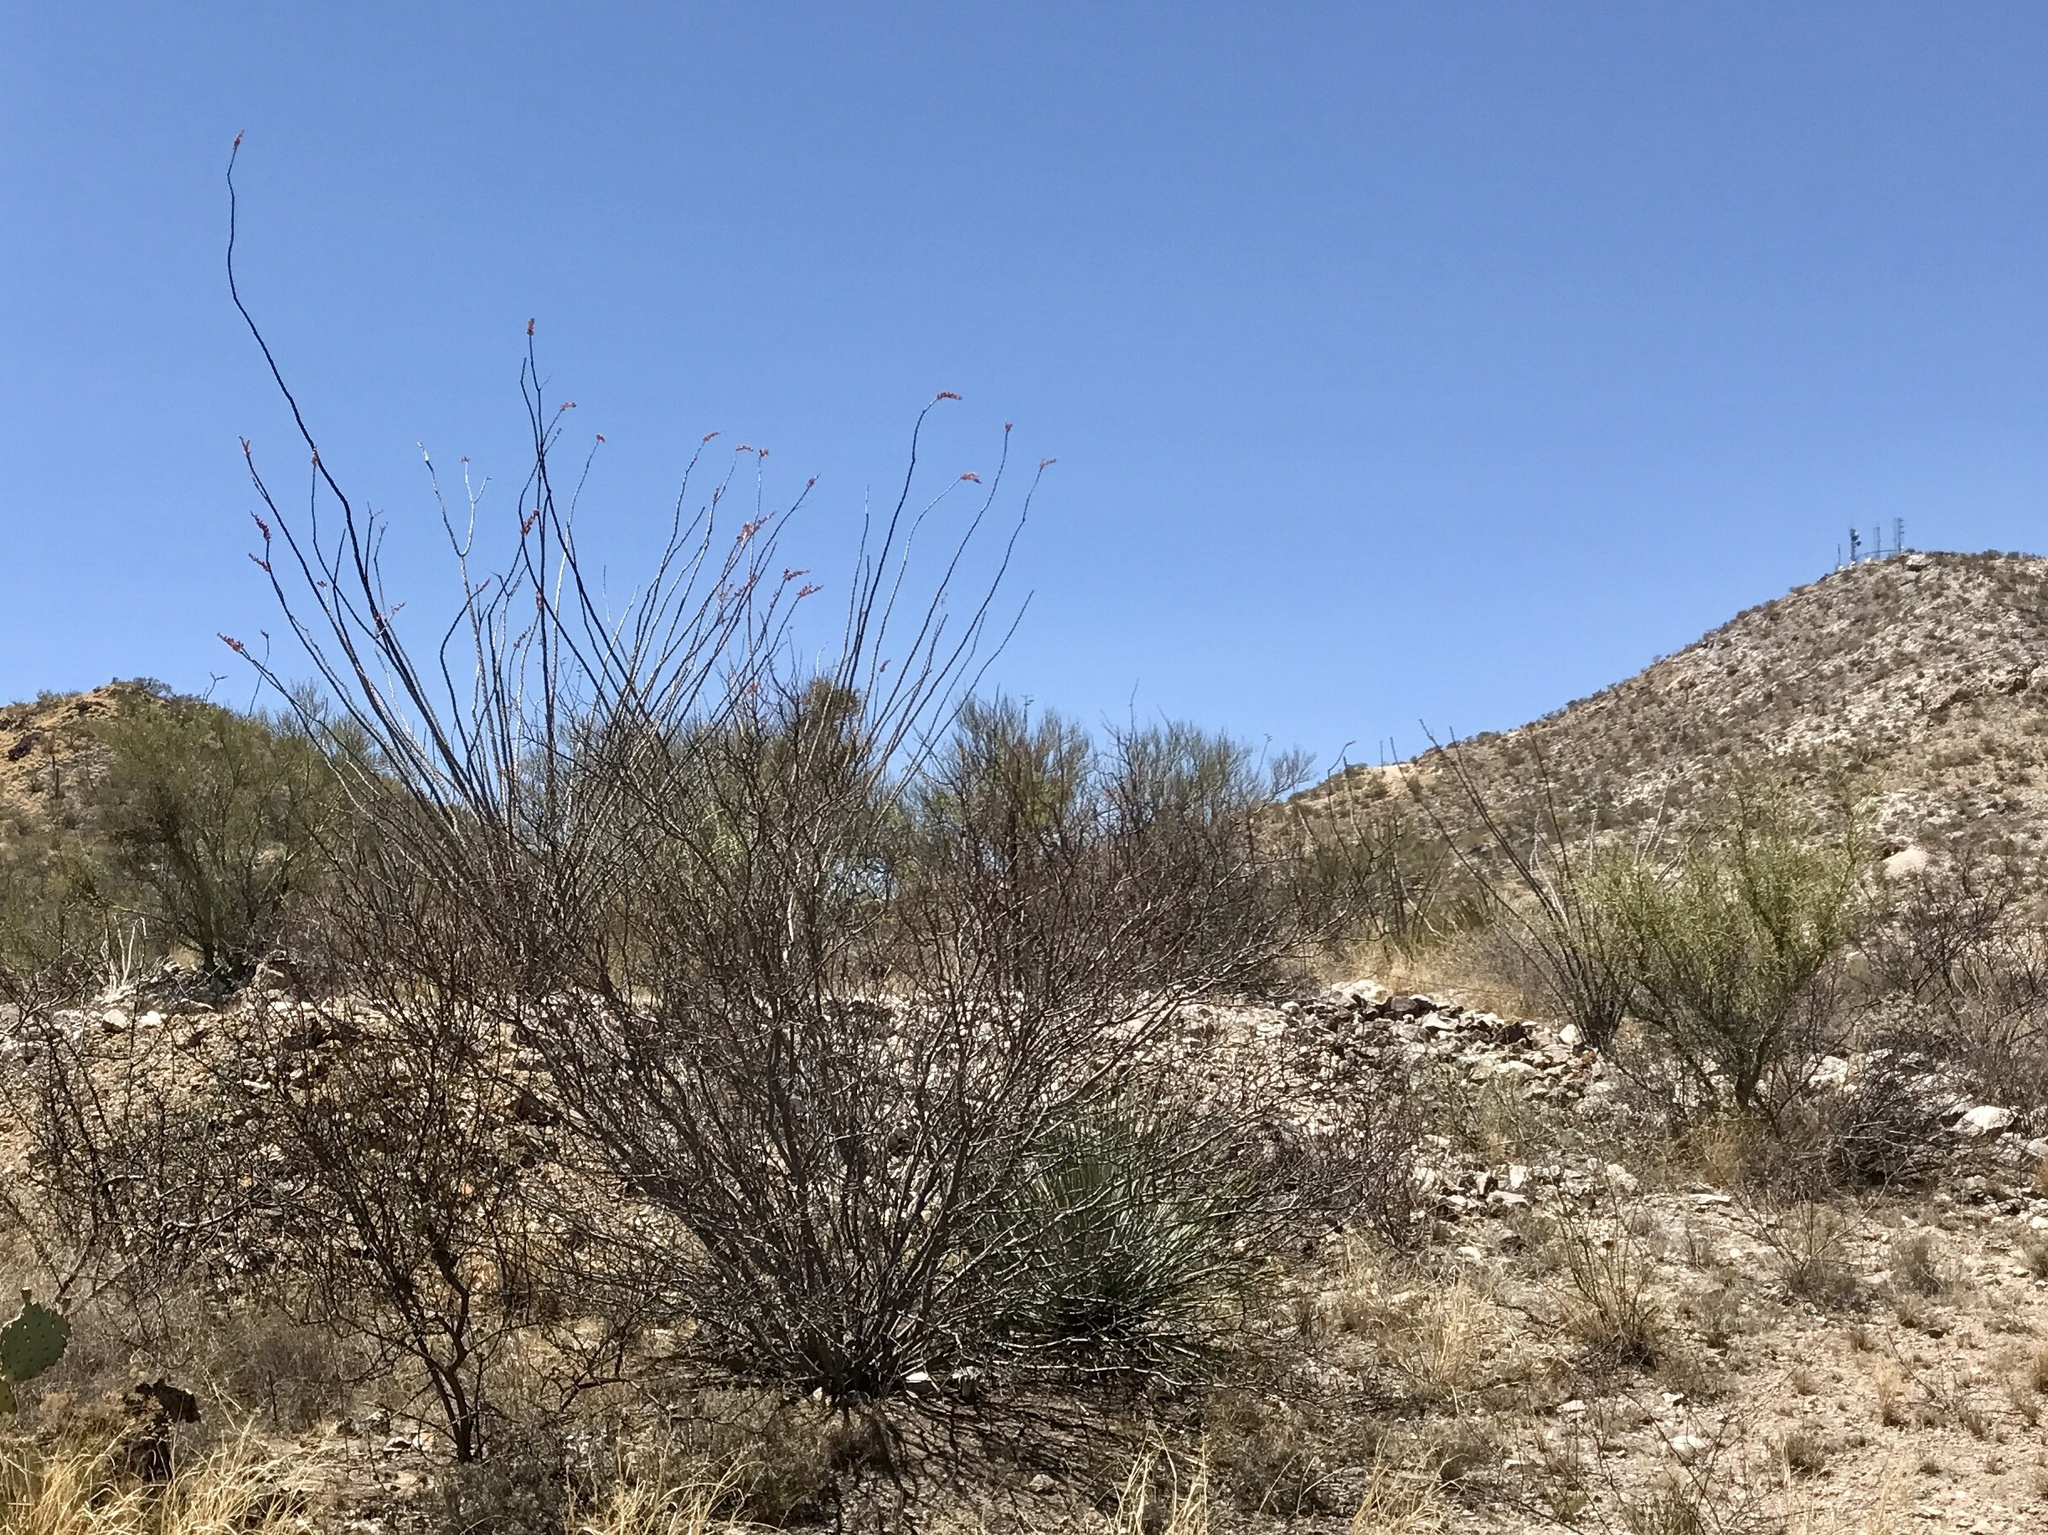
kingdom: Plantae
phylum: Tracheophyta
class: Magnoliopsida
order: Ericales
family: Fouquieriaceae
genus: Fouquieria
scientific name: Fouquieria splendens
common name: Vine-cactus
